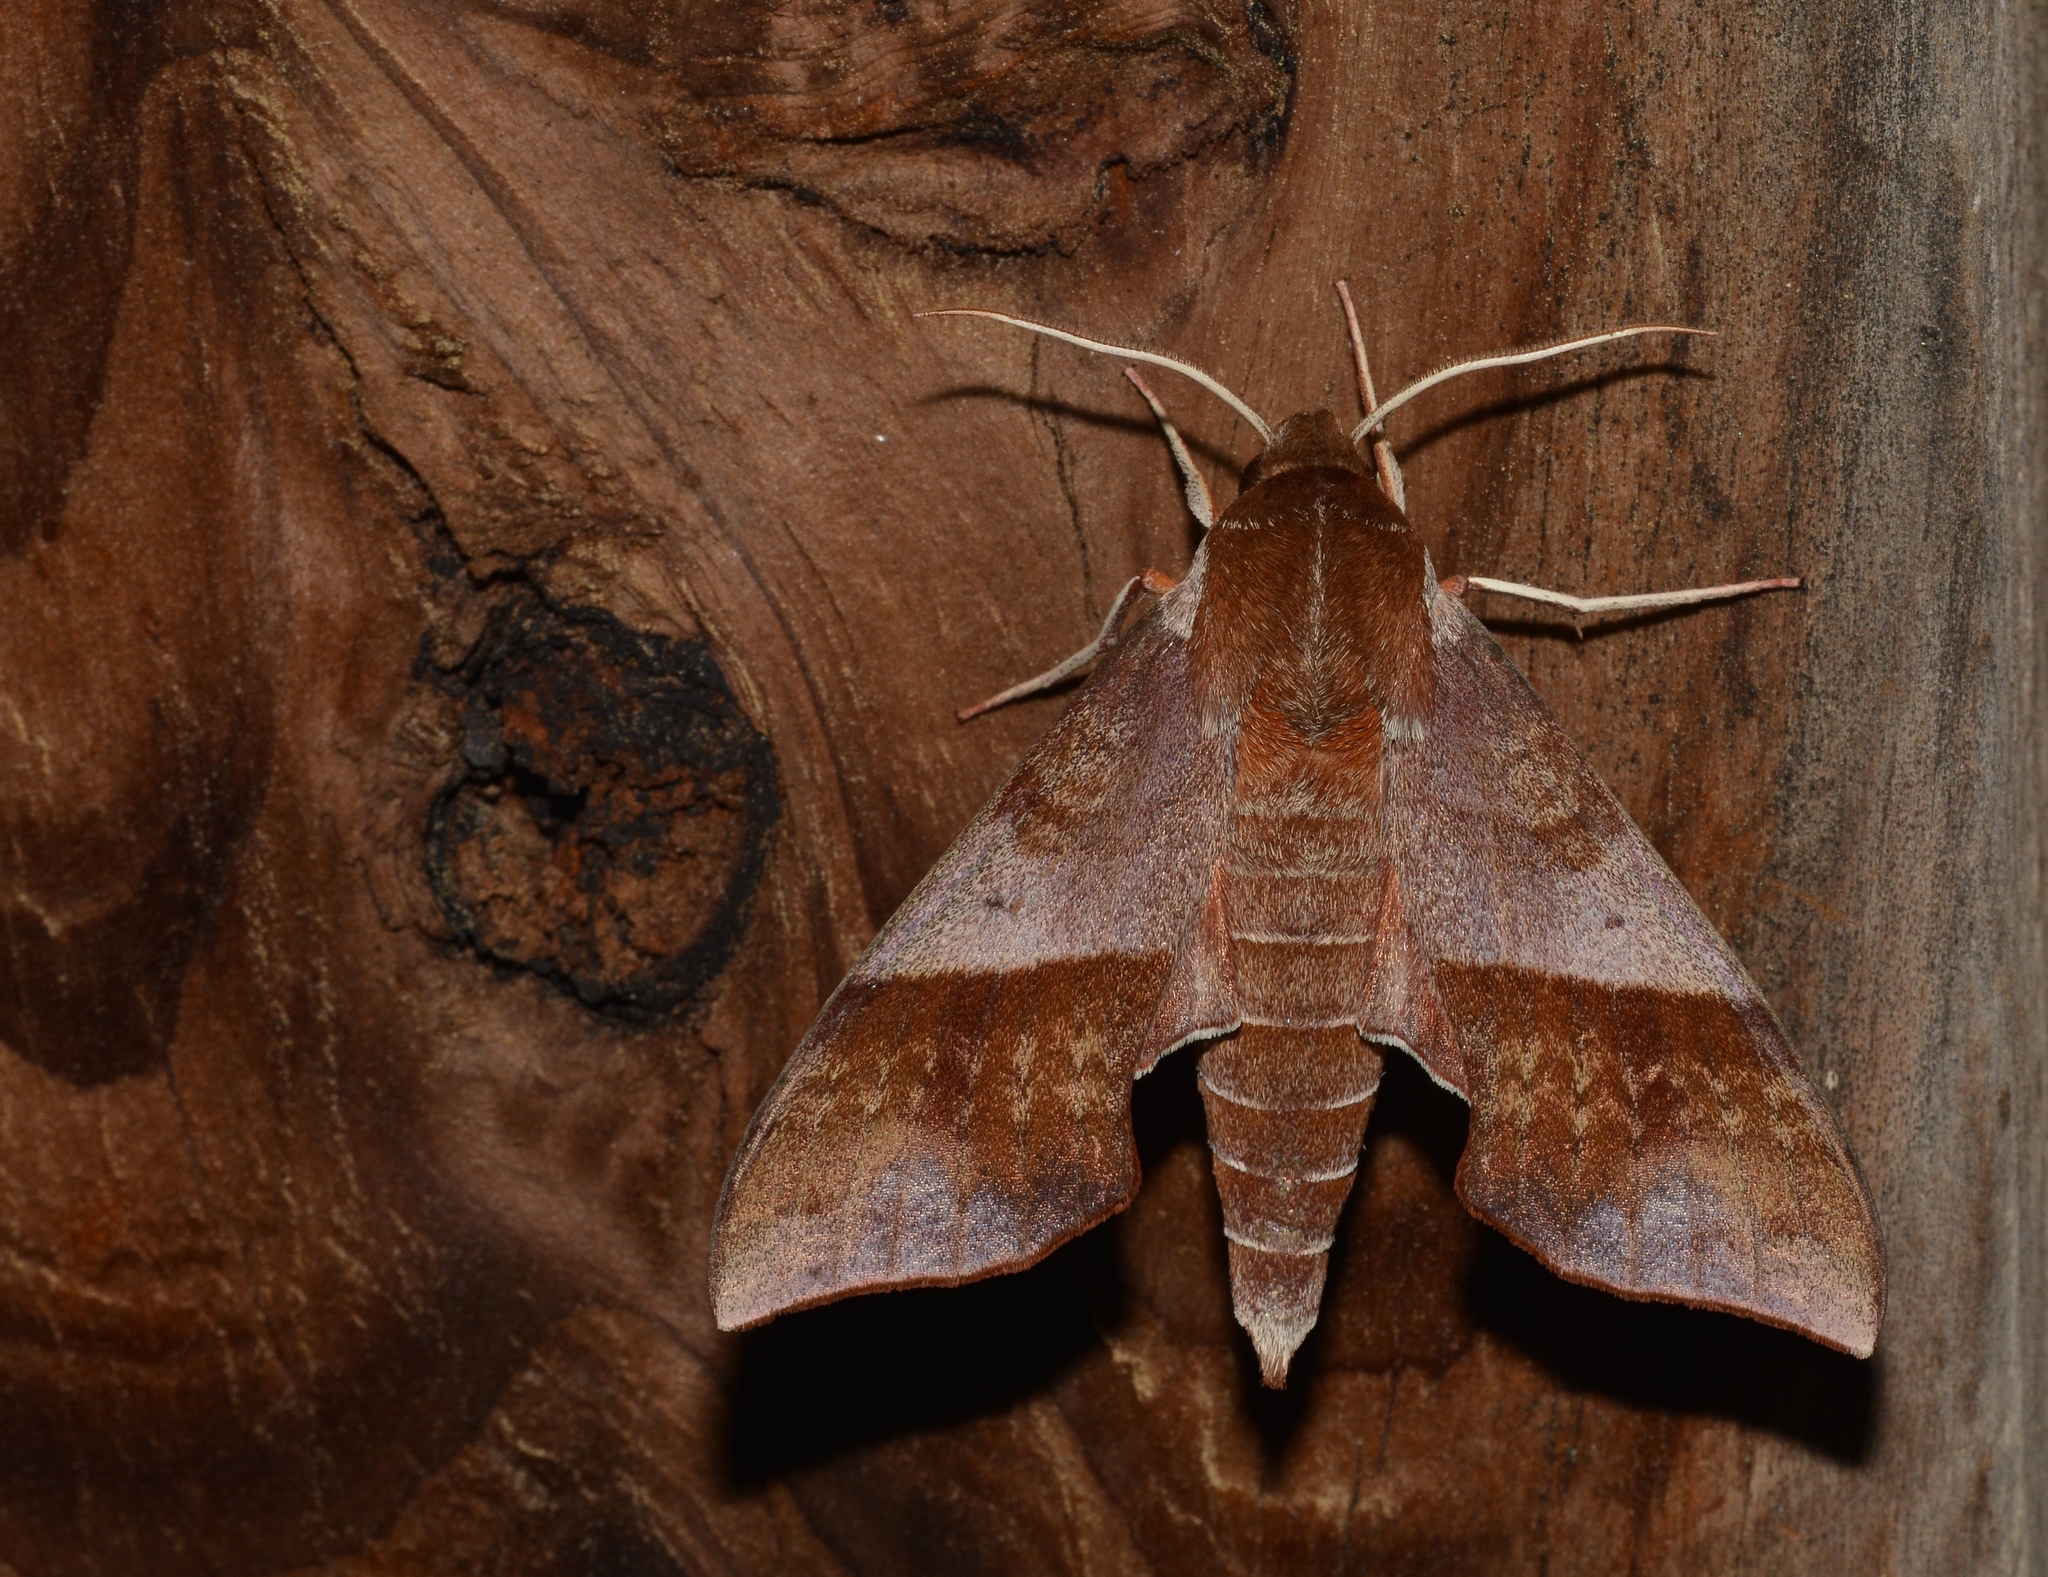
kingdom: Animalia
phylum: Arthropoda
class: Insecta
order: Lepidoptera
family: Sphingidae
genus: Darapsa
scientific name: Darapsa choerilus
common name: Azalea sphinx
